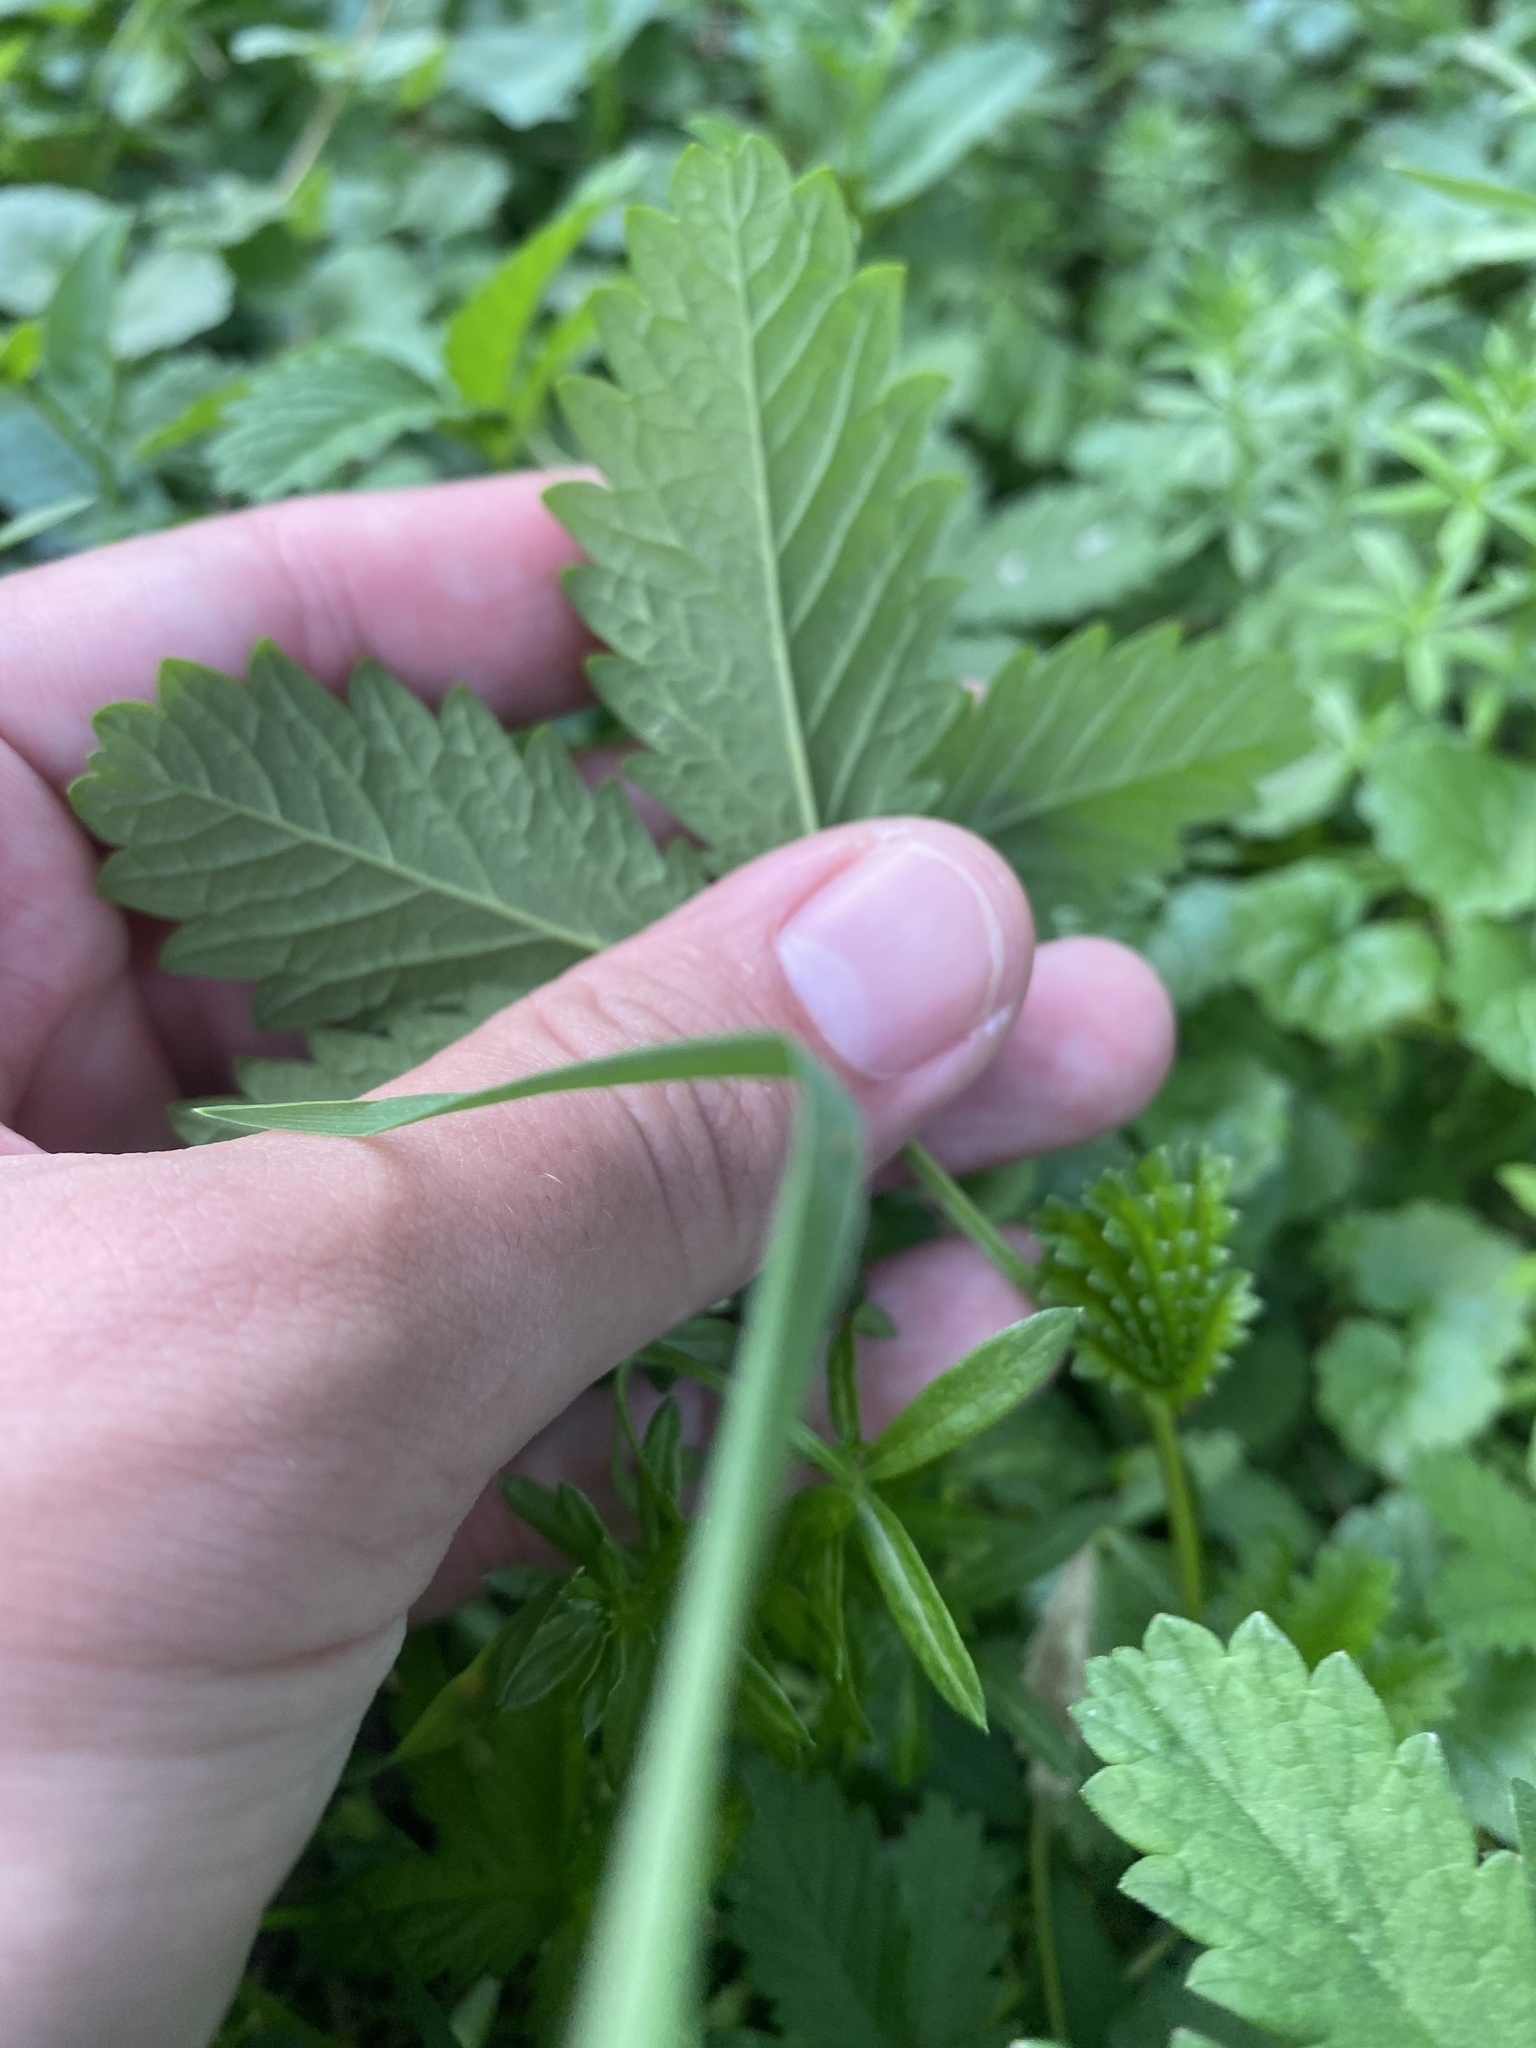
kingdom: Plantae
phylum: Tracheophyta
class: Magnoliopsida
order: Rosales
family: Rosaceae
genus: Potentilla
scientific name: Potentilla reptans
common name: Creeping cinquefoil
